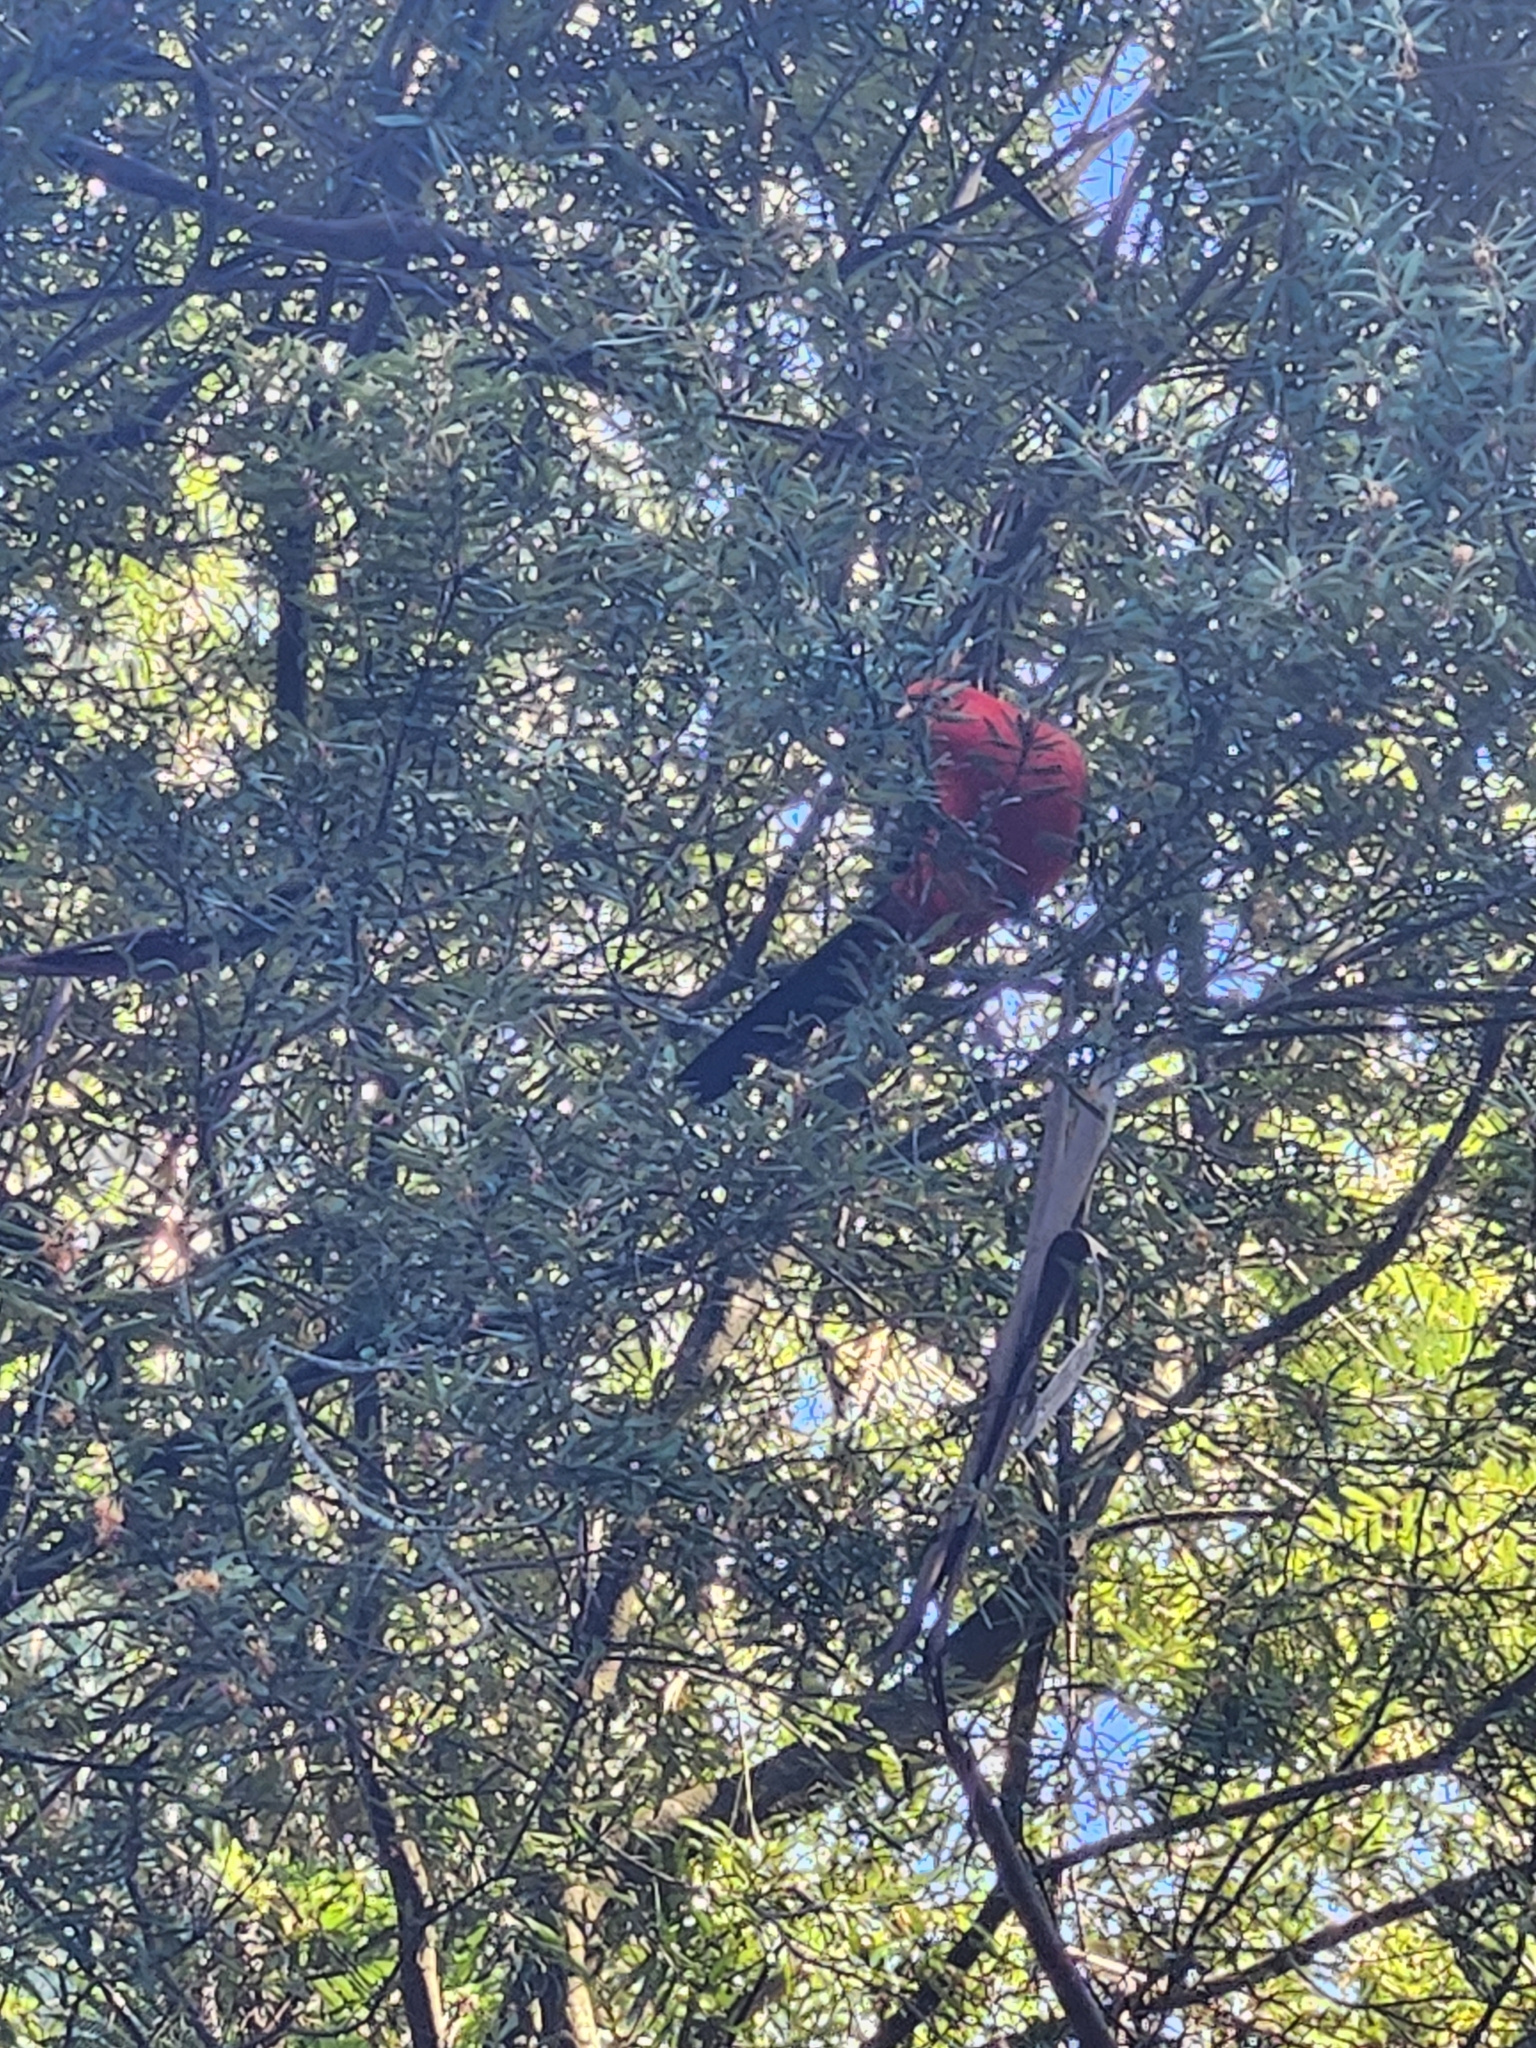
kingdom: Animalia
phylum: Chordata
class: Aves
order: Psittaciformes
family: Psittacidae
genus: Alisterus
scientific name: Alisterus scapularis
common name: Australian king parrot
